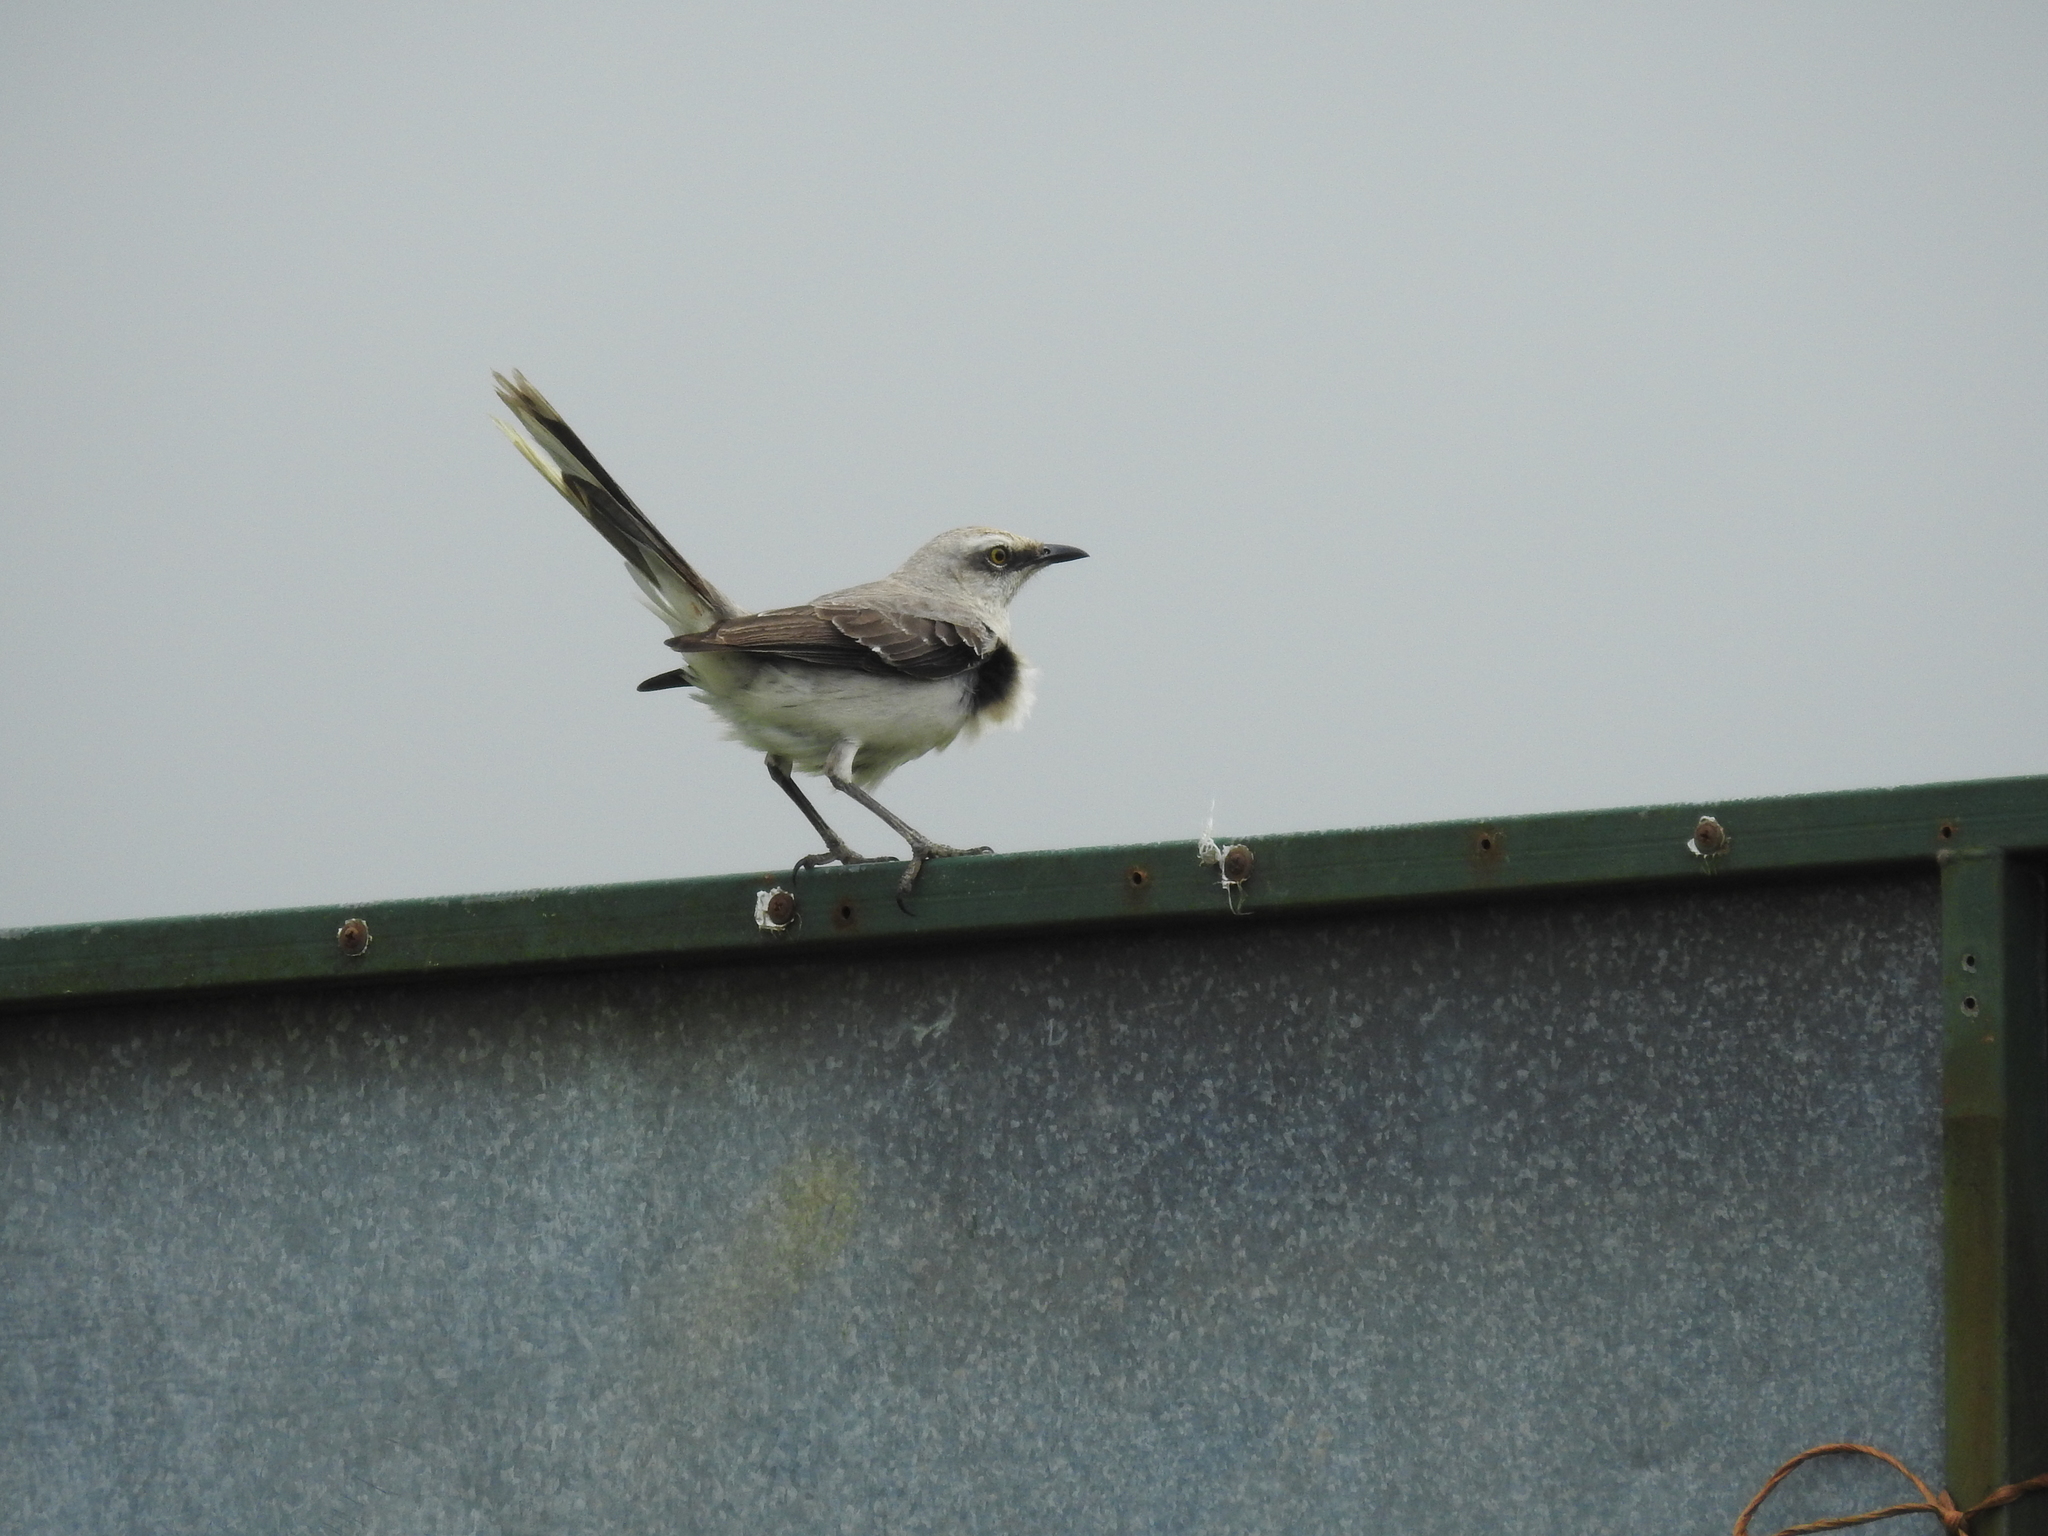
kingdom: Animalia
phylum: Chordata
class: Aves
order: Passeriformes
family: Mimidae
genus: Mimus
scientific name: Mimus gilvus
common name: Tropical mockingbird
